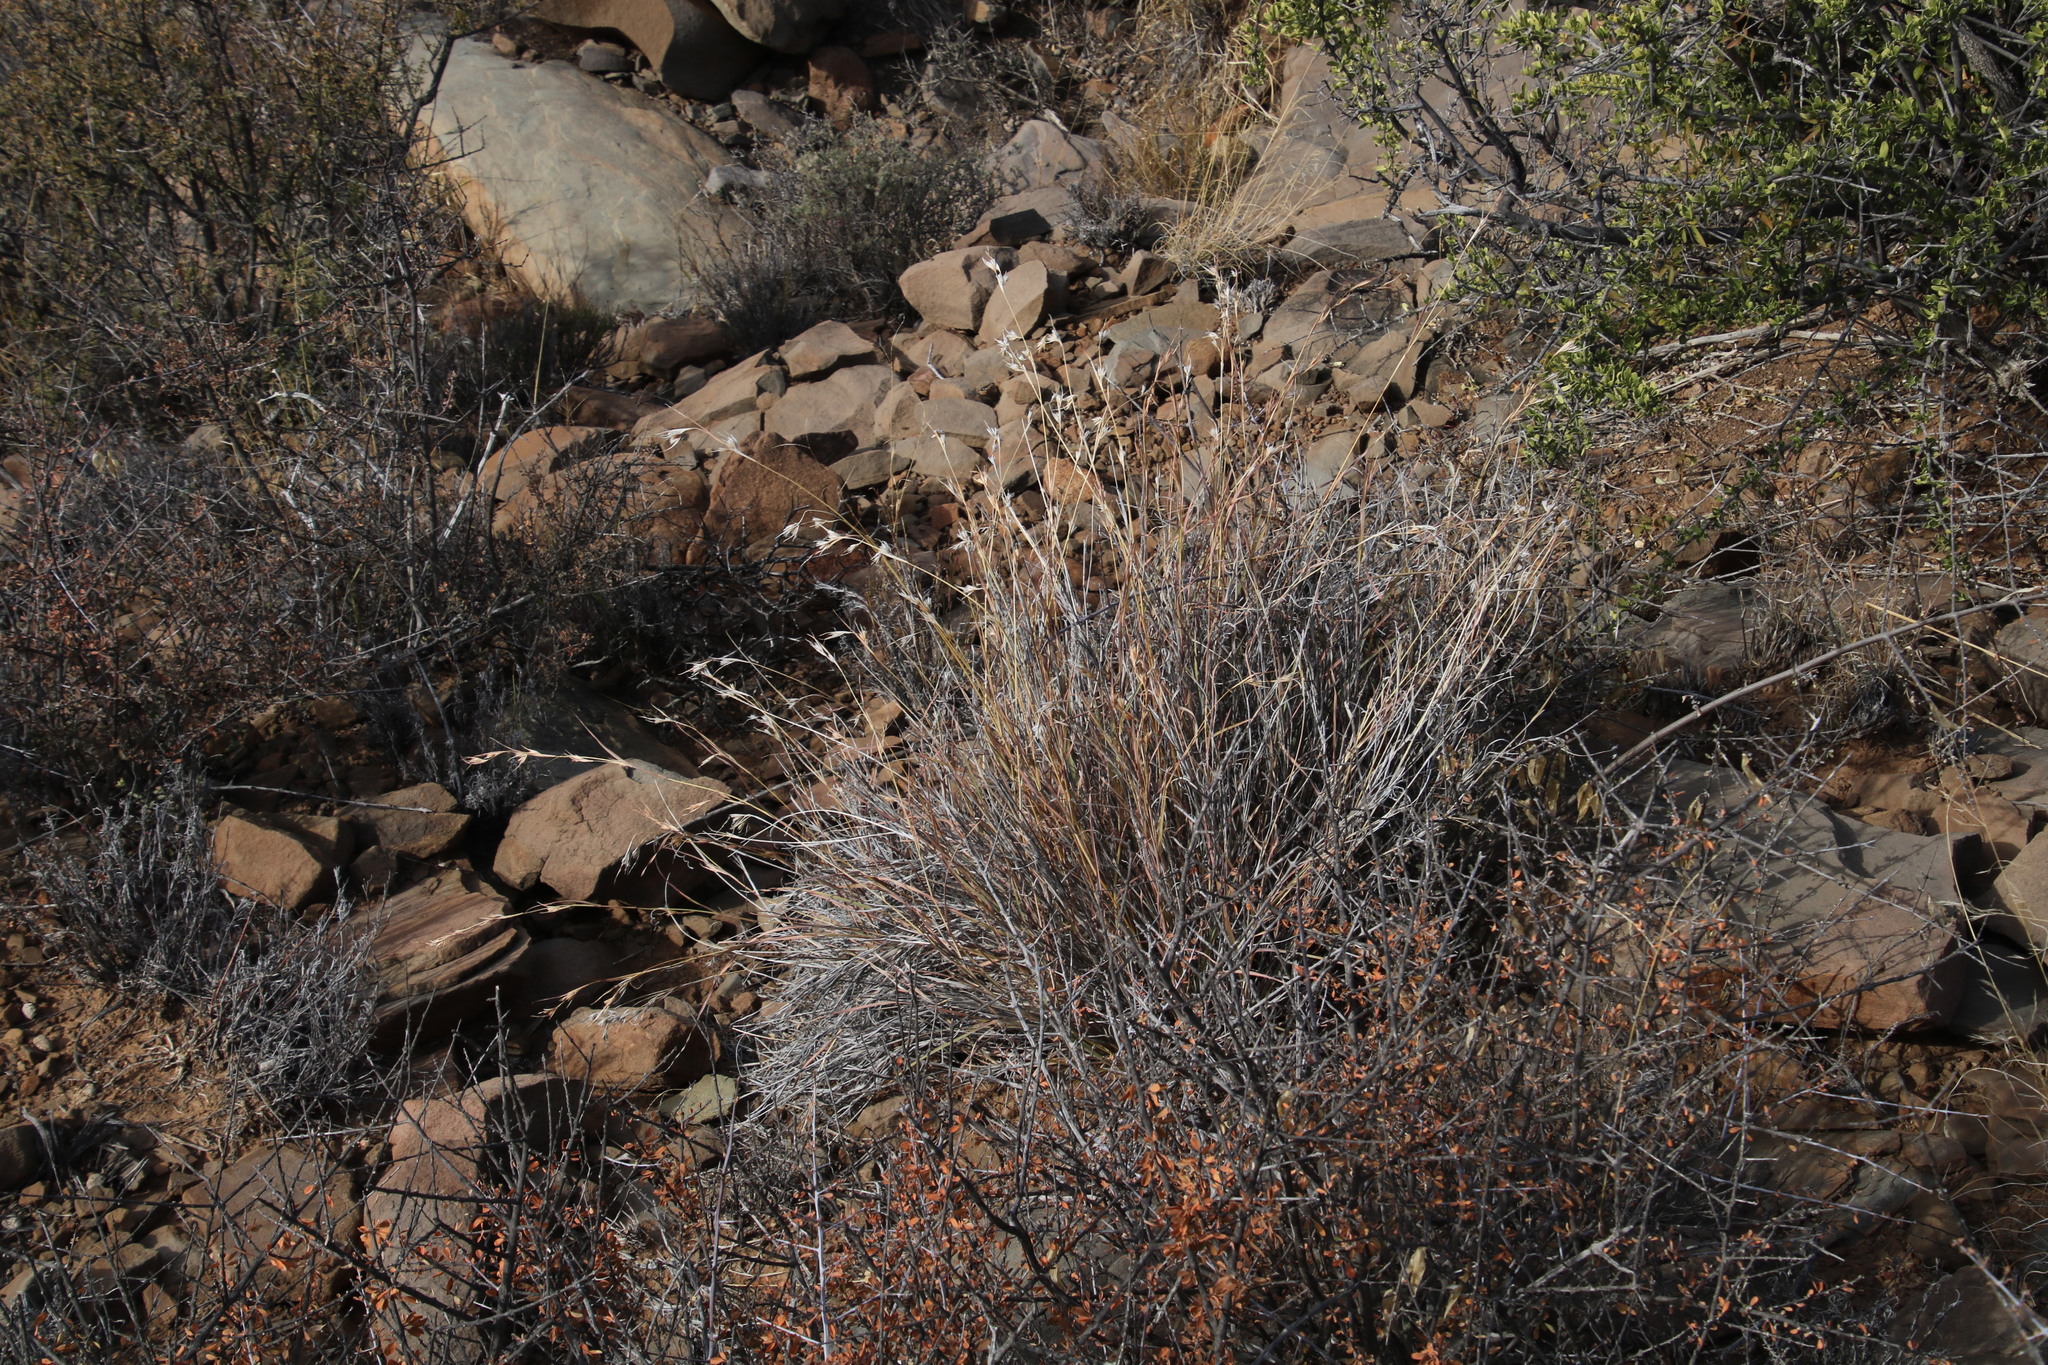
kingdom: Plantae
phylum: Tracheophyta
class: Liliopsida
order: Poales
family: Poaceae
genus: Themeda
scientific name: Themeda triandra
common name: Kangaroo grass
